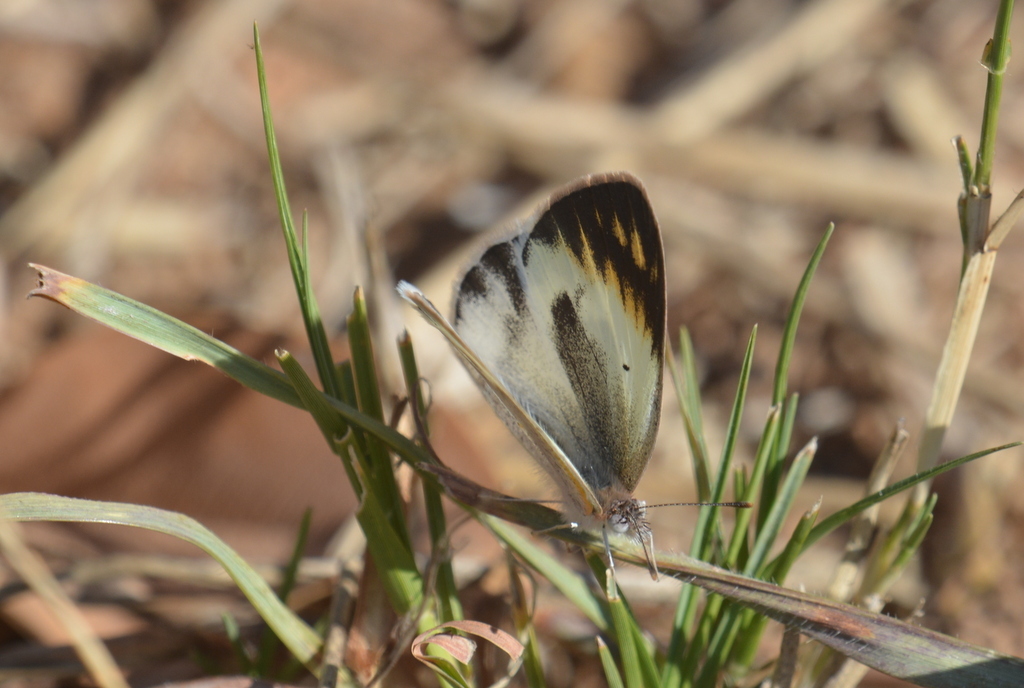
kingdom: Animalia
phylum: Arthropoda
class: Insecta
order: Lepidoptera
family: Pieridae
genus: Colotis
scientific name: Colotis antevippe
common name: Large orange tip
